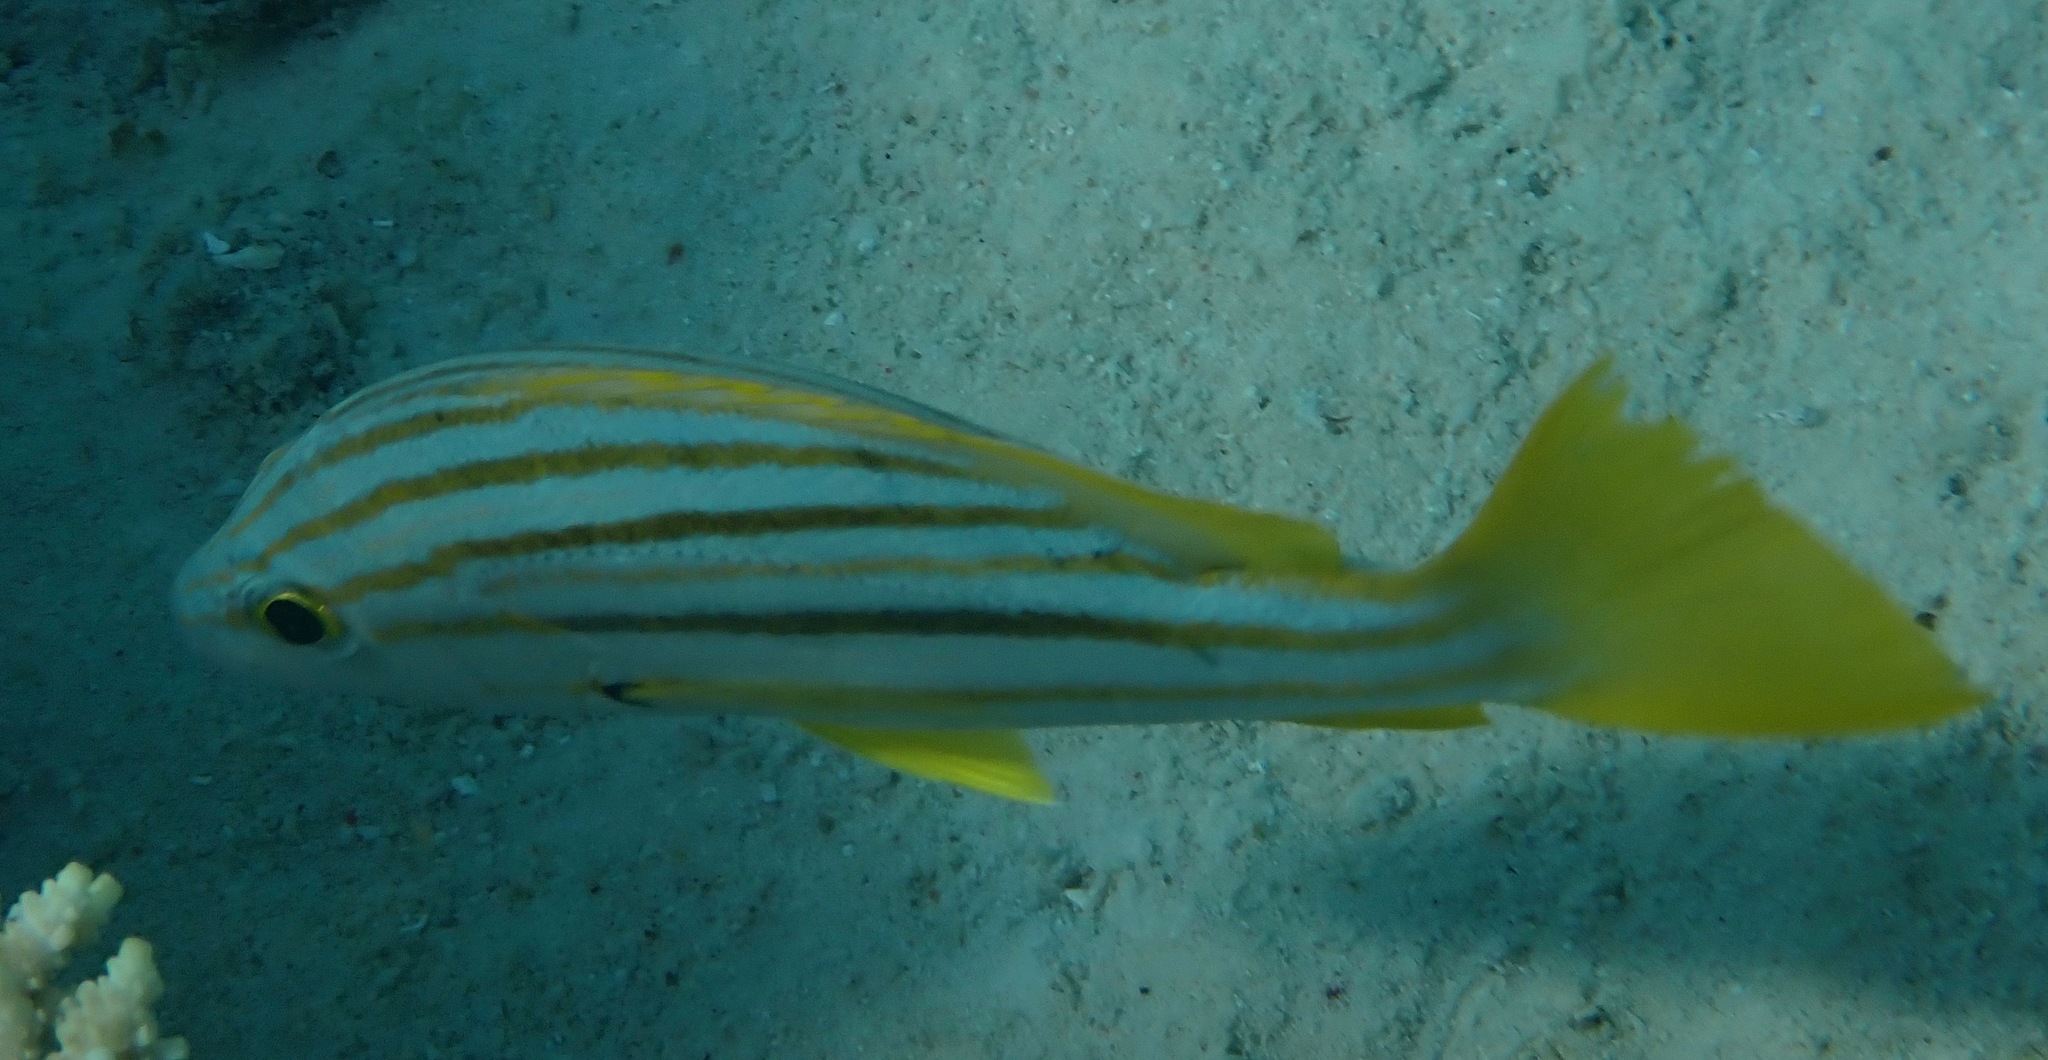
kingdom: Animalia
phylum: Chordata
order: Perciformes
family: Lutjanidae
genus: Lutjanus
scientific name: Lutjanus carponotatus
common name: Spanish flag
